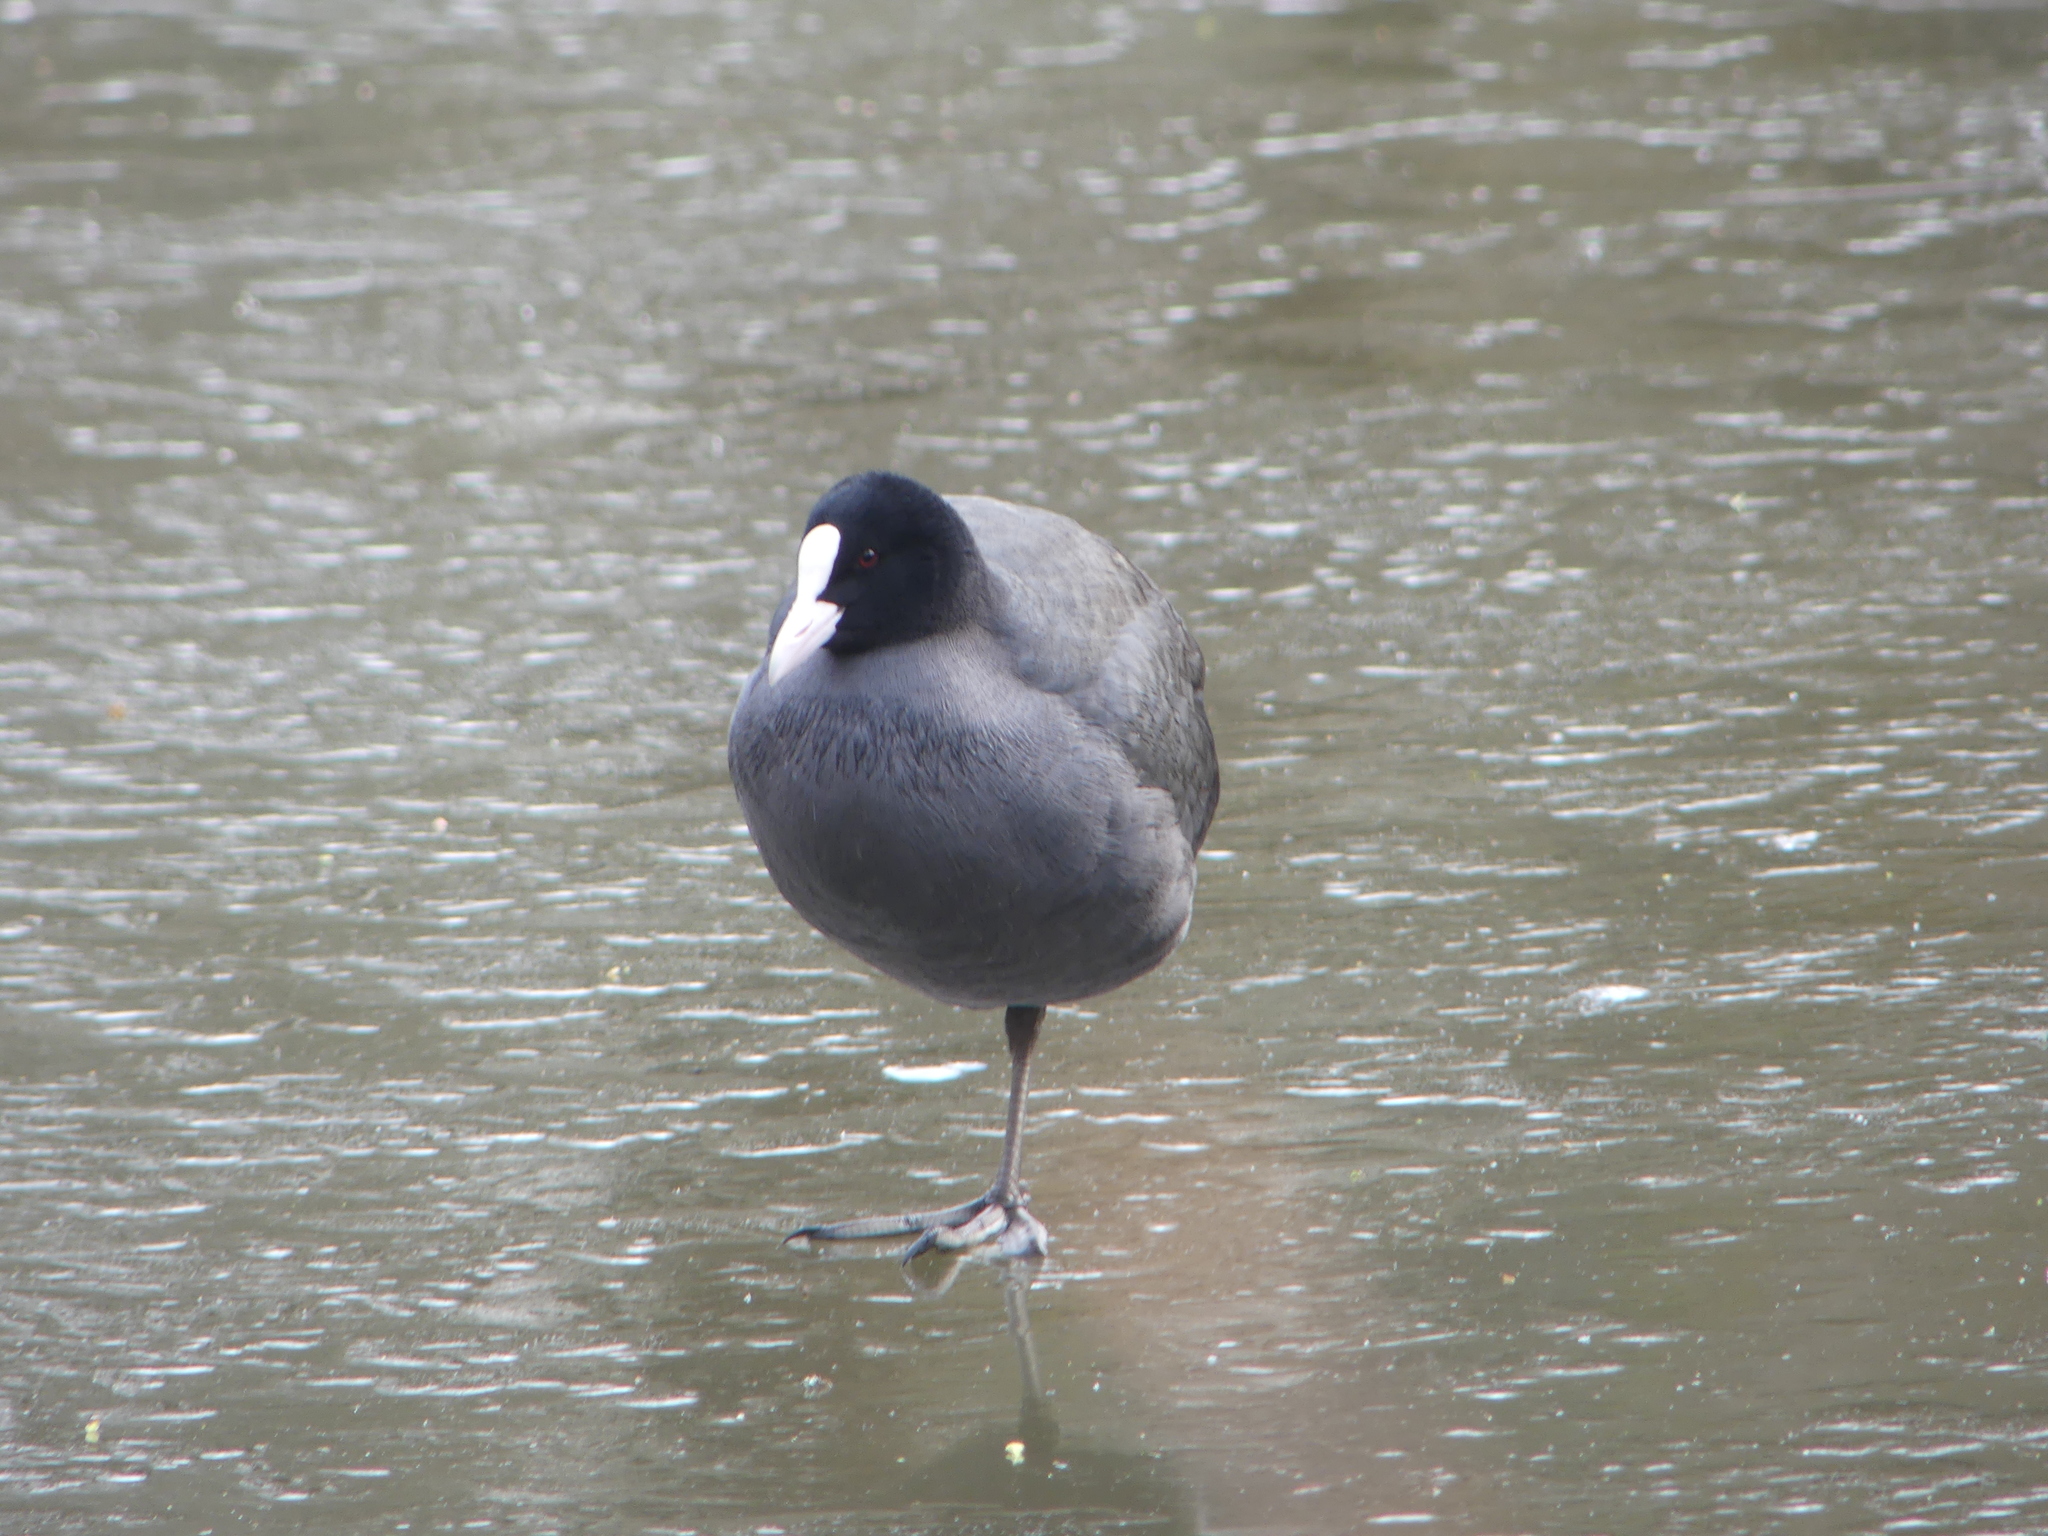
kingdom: Animalia
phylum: Chordata
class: Aves
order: Gruiformes
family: Rallidae
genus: Fulica
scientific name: Fulica atra
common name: Eurasian coot
